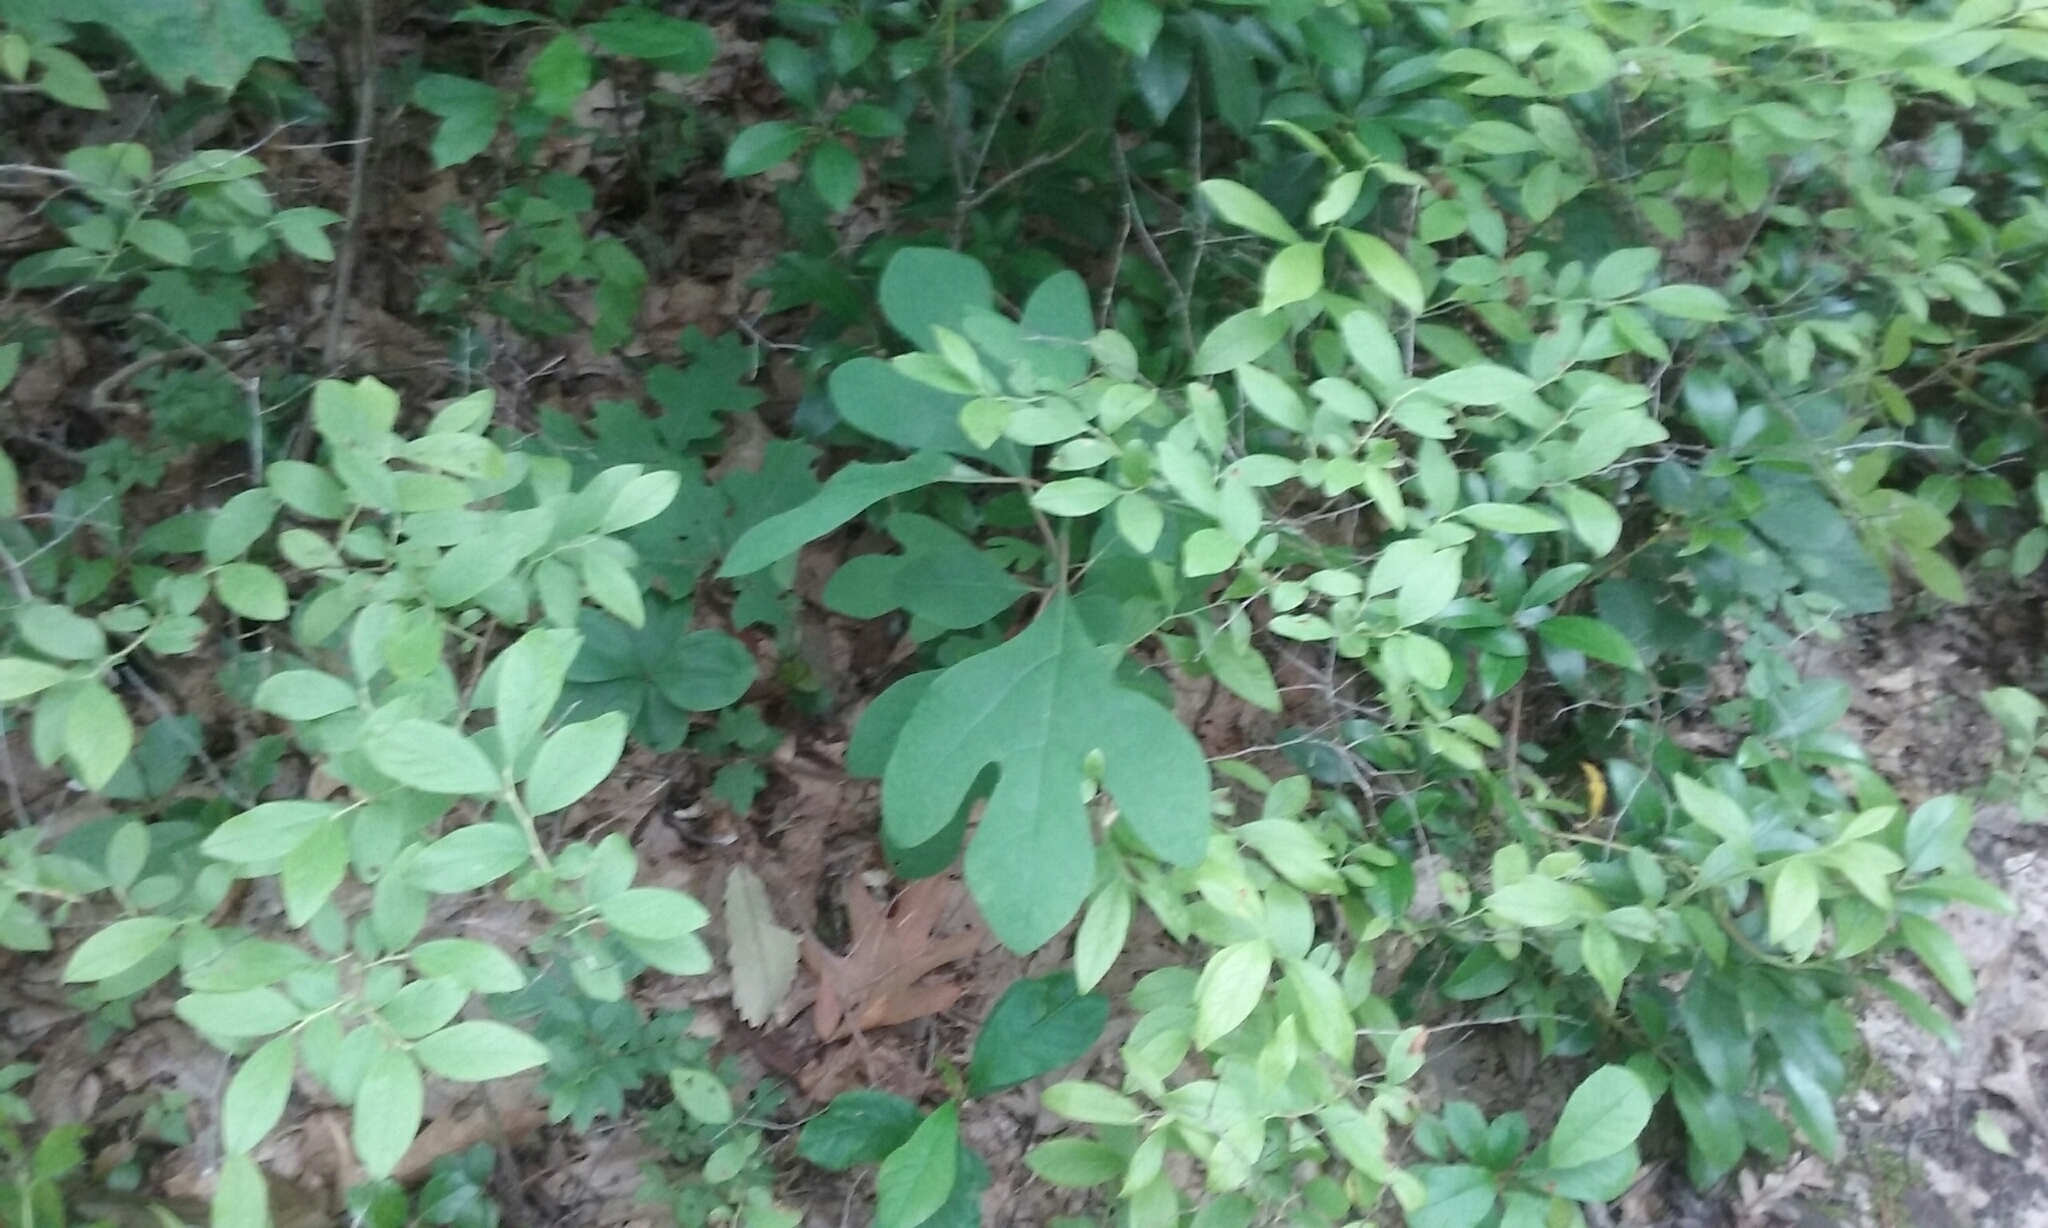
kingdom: Plantae
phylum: Tracheophyta
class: Magnoliopsida
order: Laurales
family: Lauraceae
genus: Sassafras
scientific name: Sassafras albidum
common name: Sassafras
